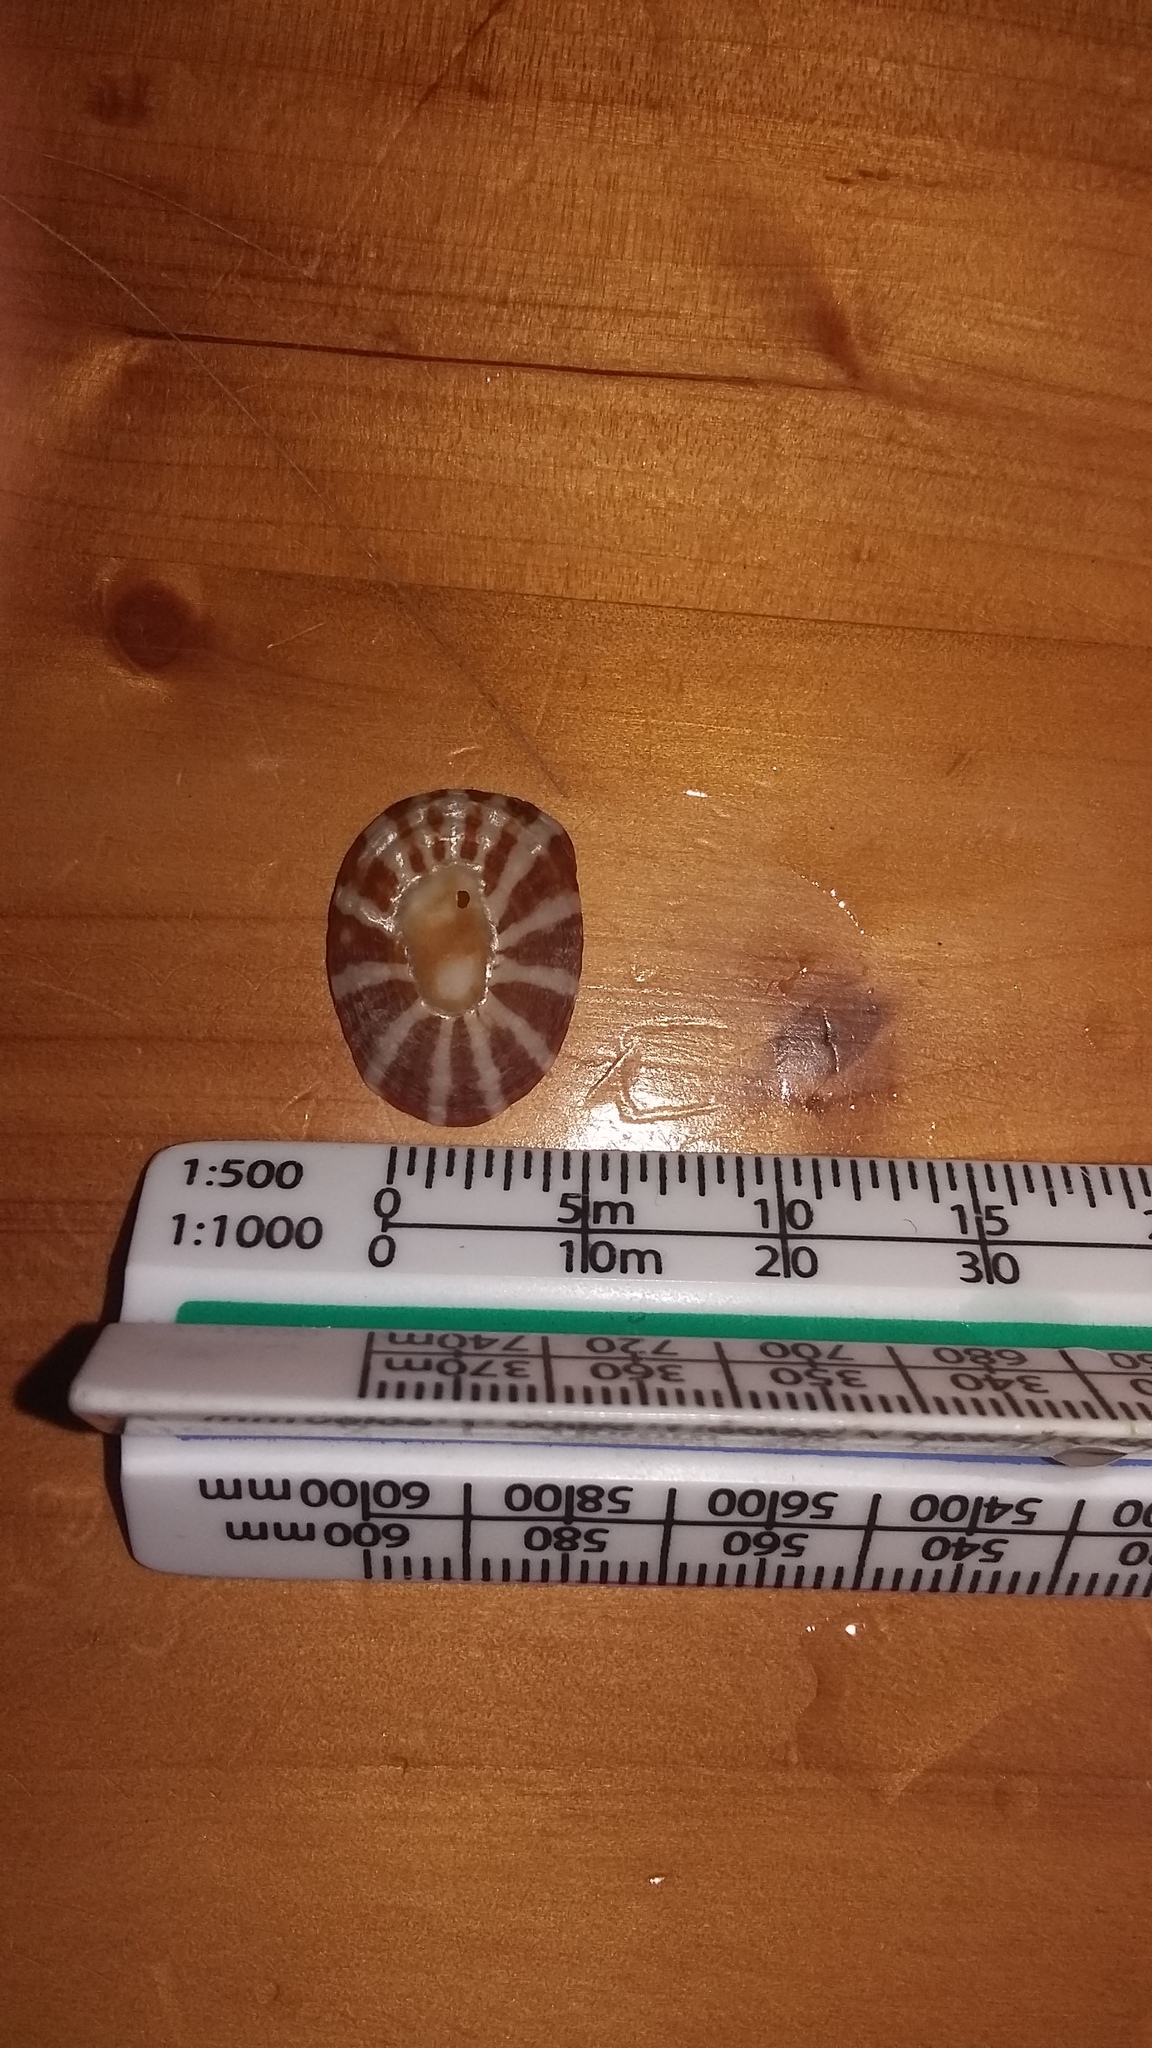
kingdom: Animalia
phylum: Mollusca
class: Gastropoda
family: Nacellidae
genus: Cellana
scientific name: Cellana stellifera
